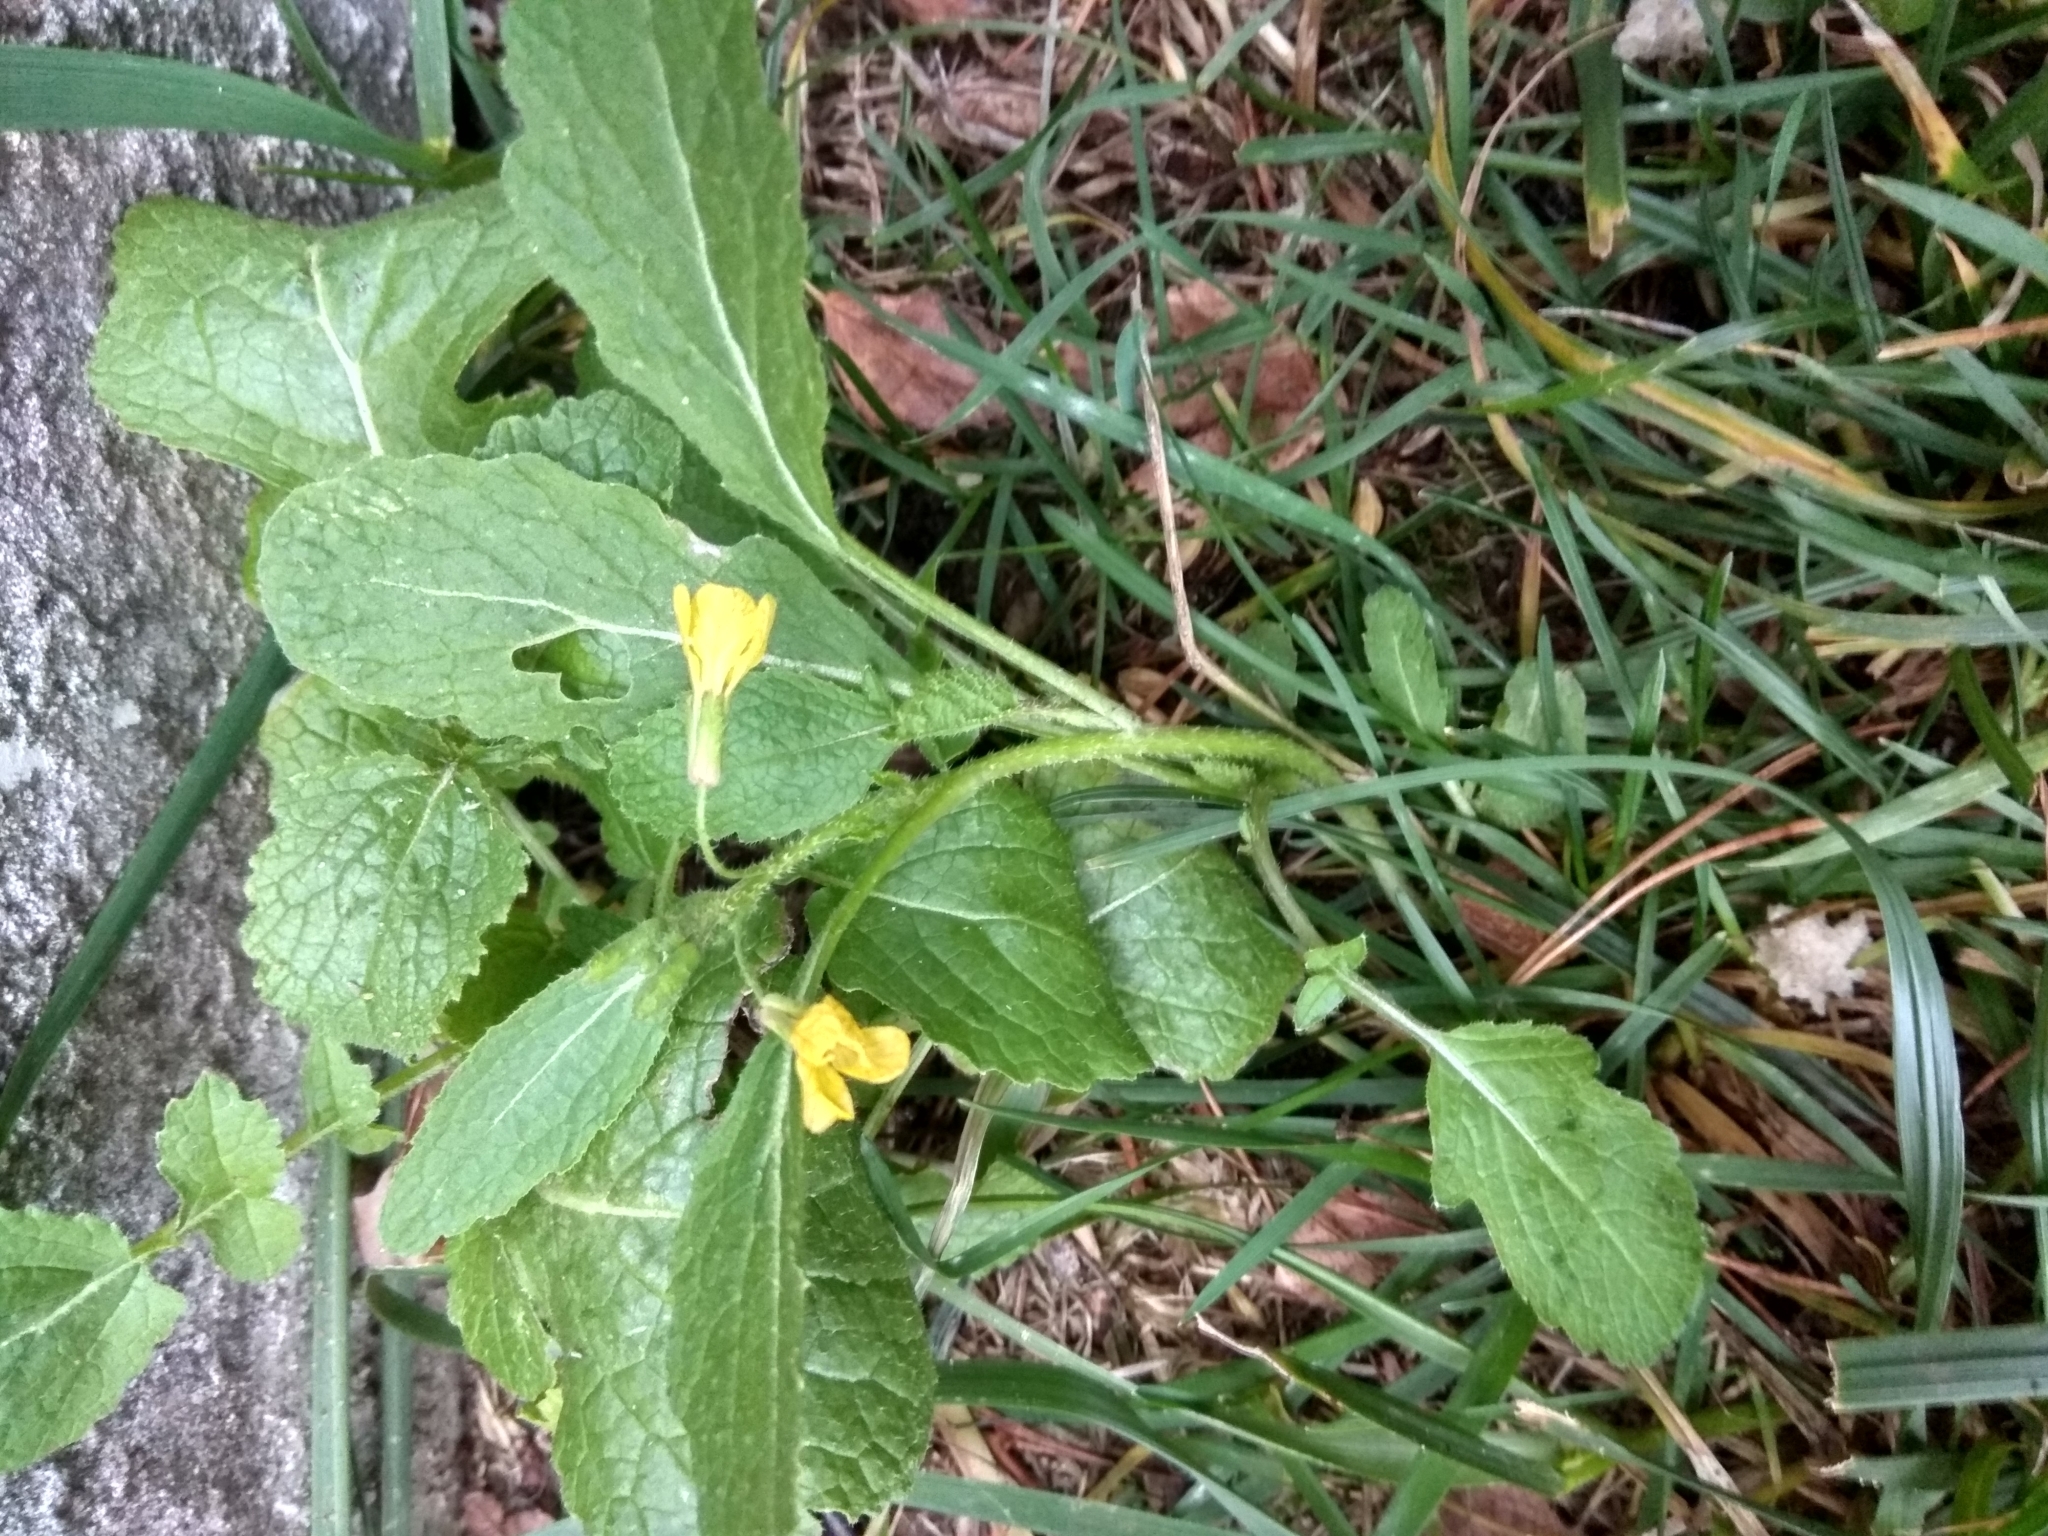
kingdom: Plantae
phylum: Tracheophyta
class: Magnoliopsida
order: Brassicales
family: Brassicaceae
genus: Sinapis
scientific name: Sinapis arvensis
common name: Charlock
